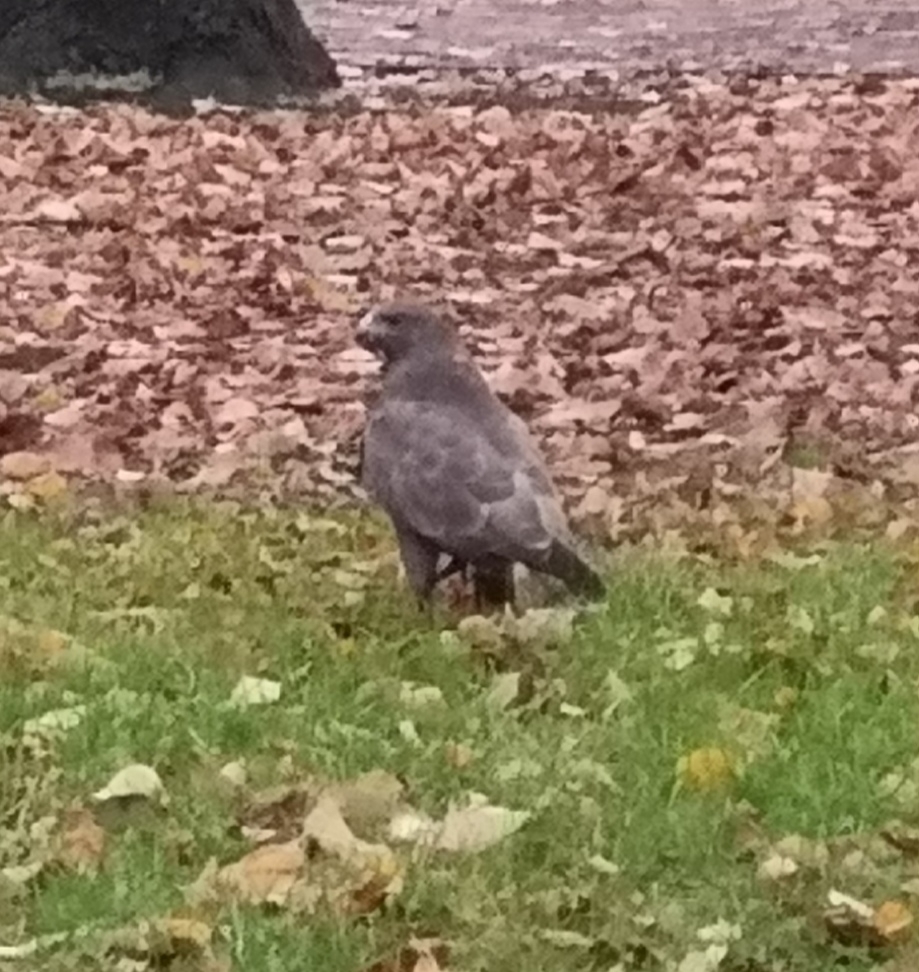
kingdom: Animalia
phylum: Chordata
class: Aves
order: Accipitriformes
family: Accipitridae
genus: Buteo
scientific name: Buteo buteo
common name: Common buzzard
